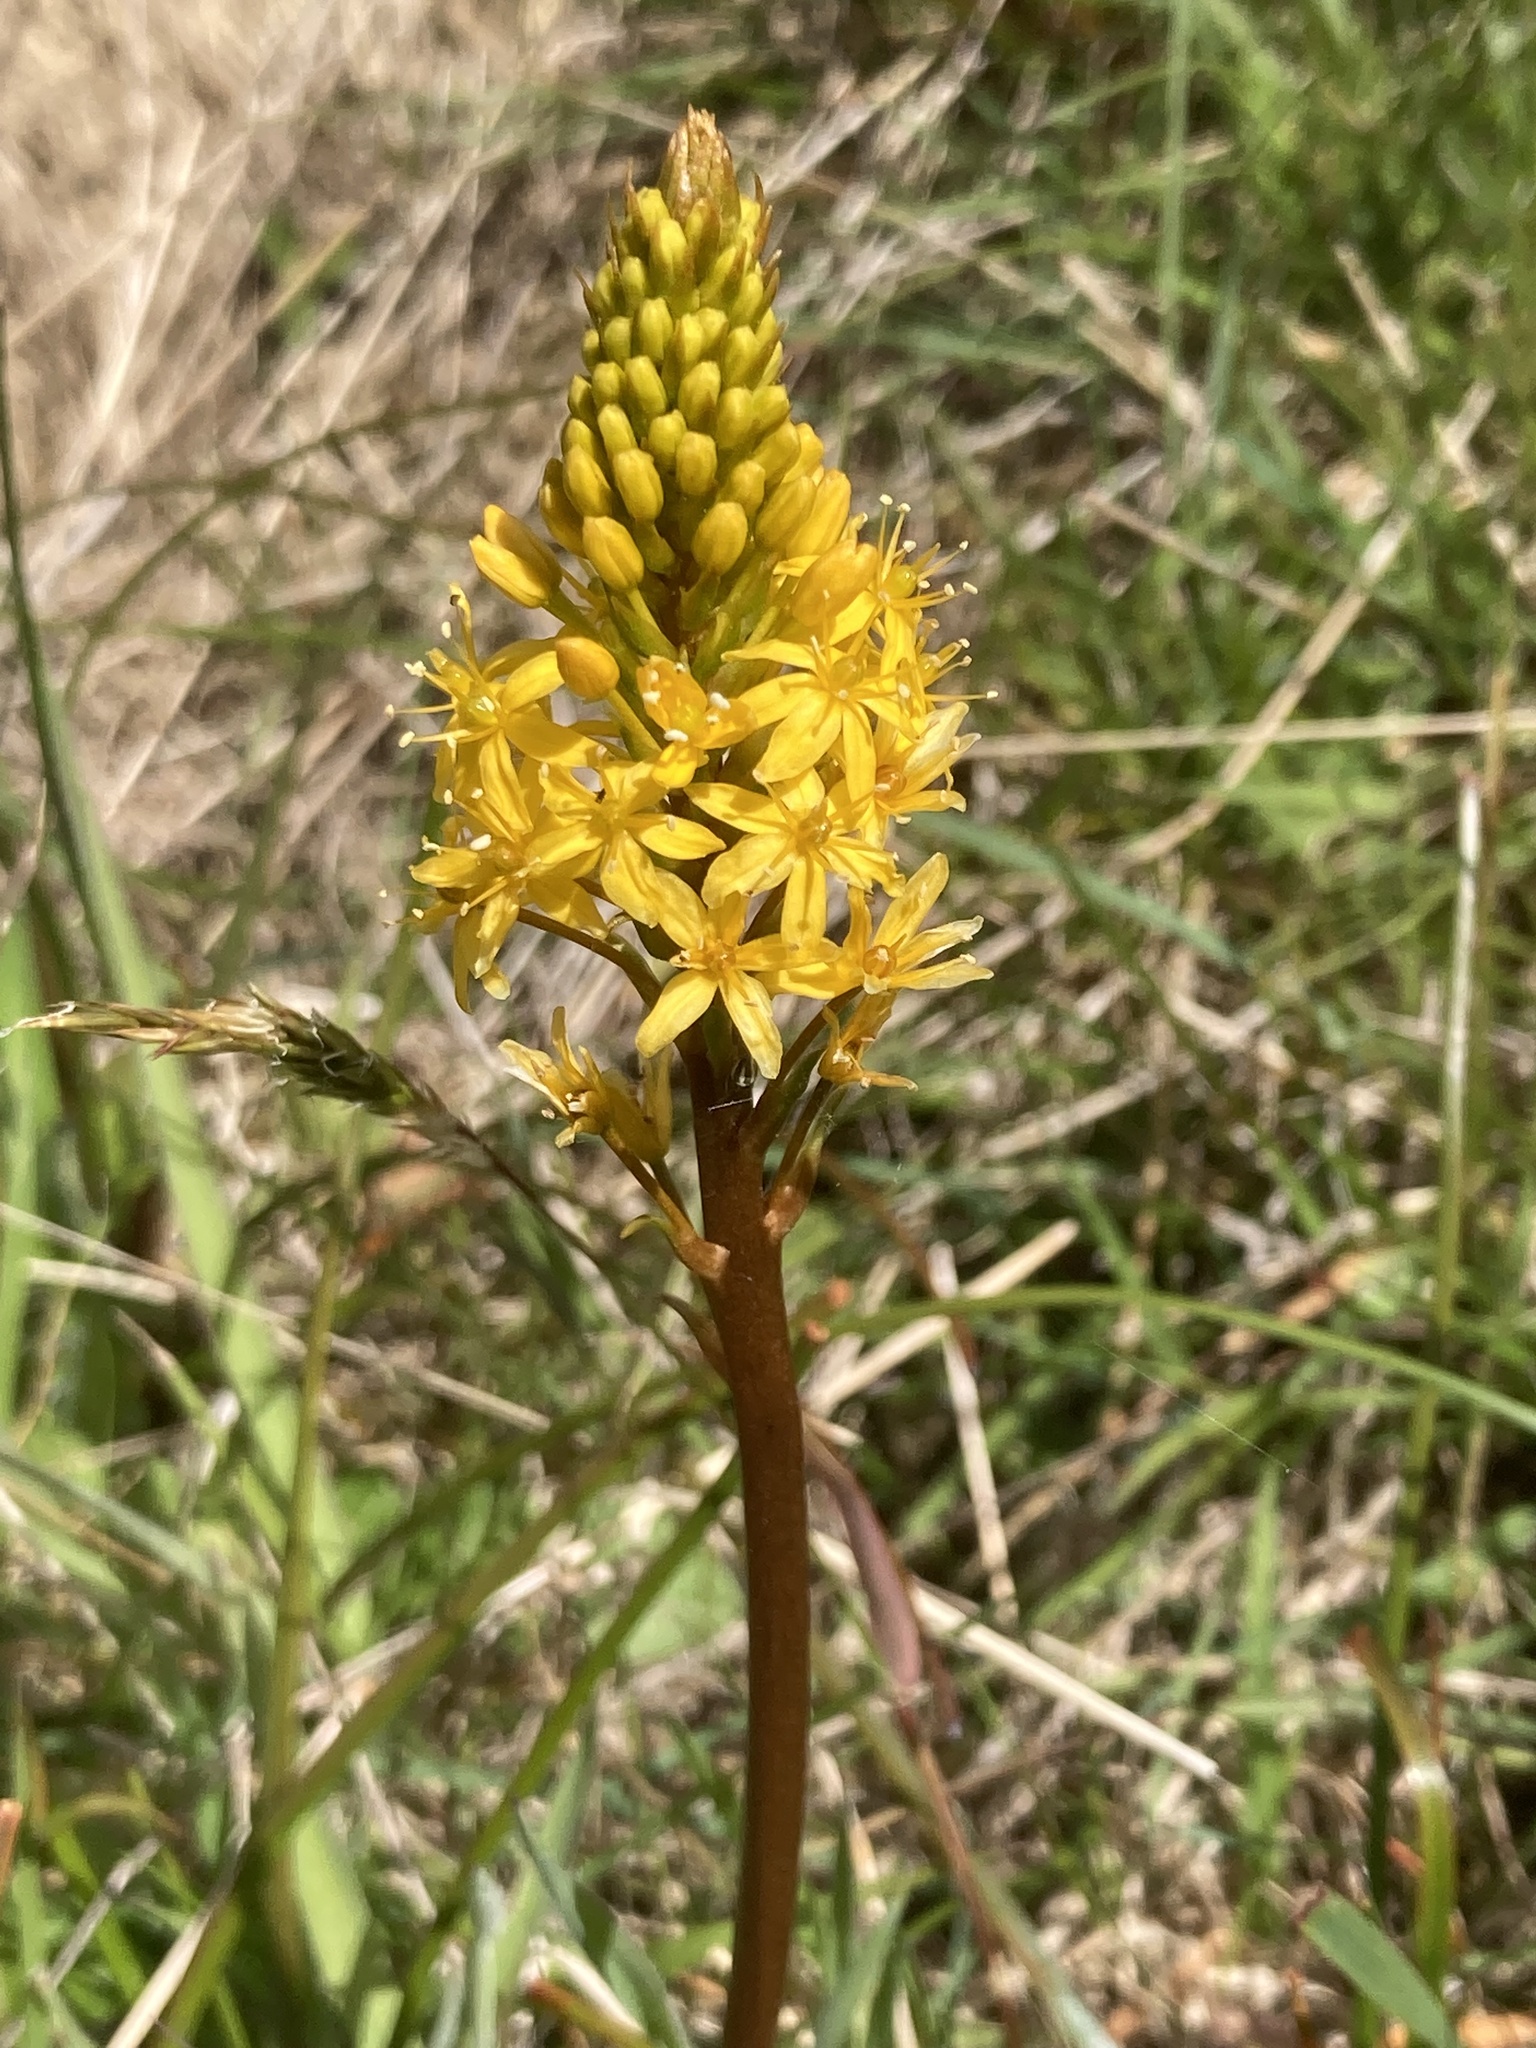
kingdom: Plantae
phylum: Tracheophyta
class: Liliopsida
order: Asparagales
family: Asphodelaceae
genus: Bulbinella
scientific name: Bulbinella angustifolia
